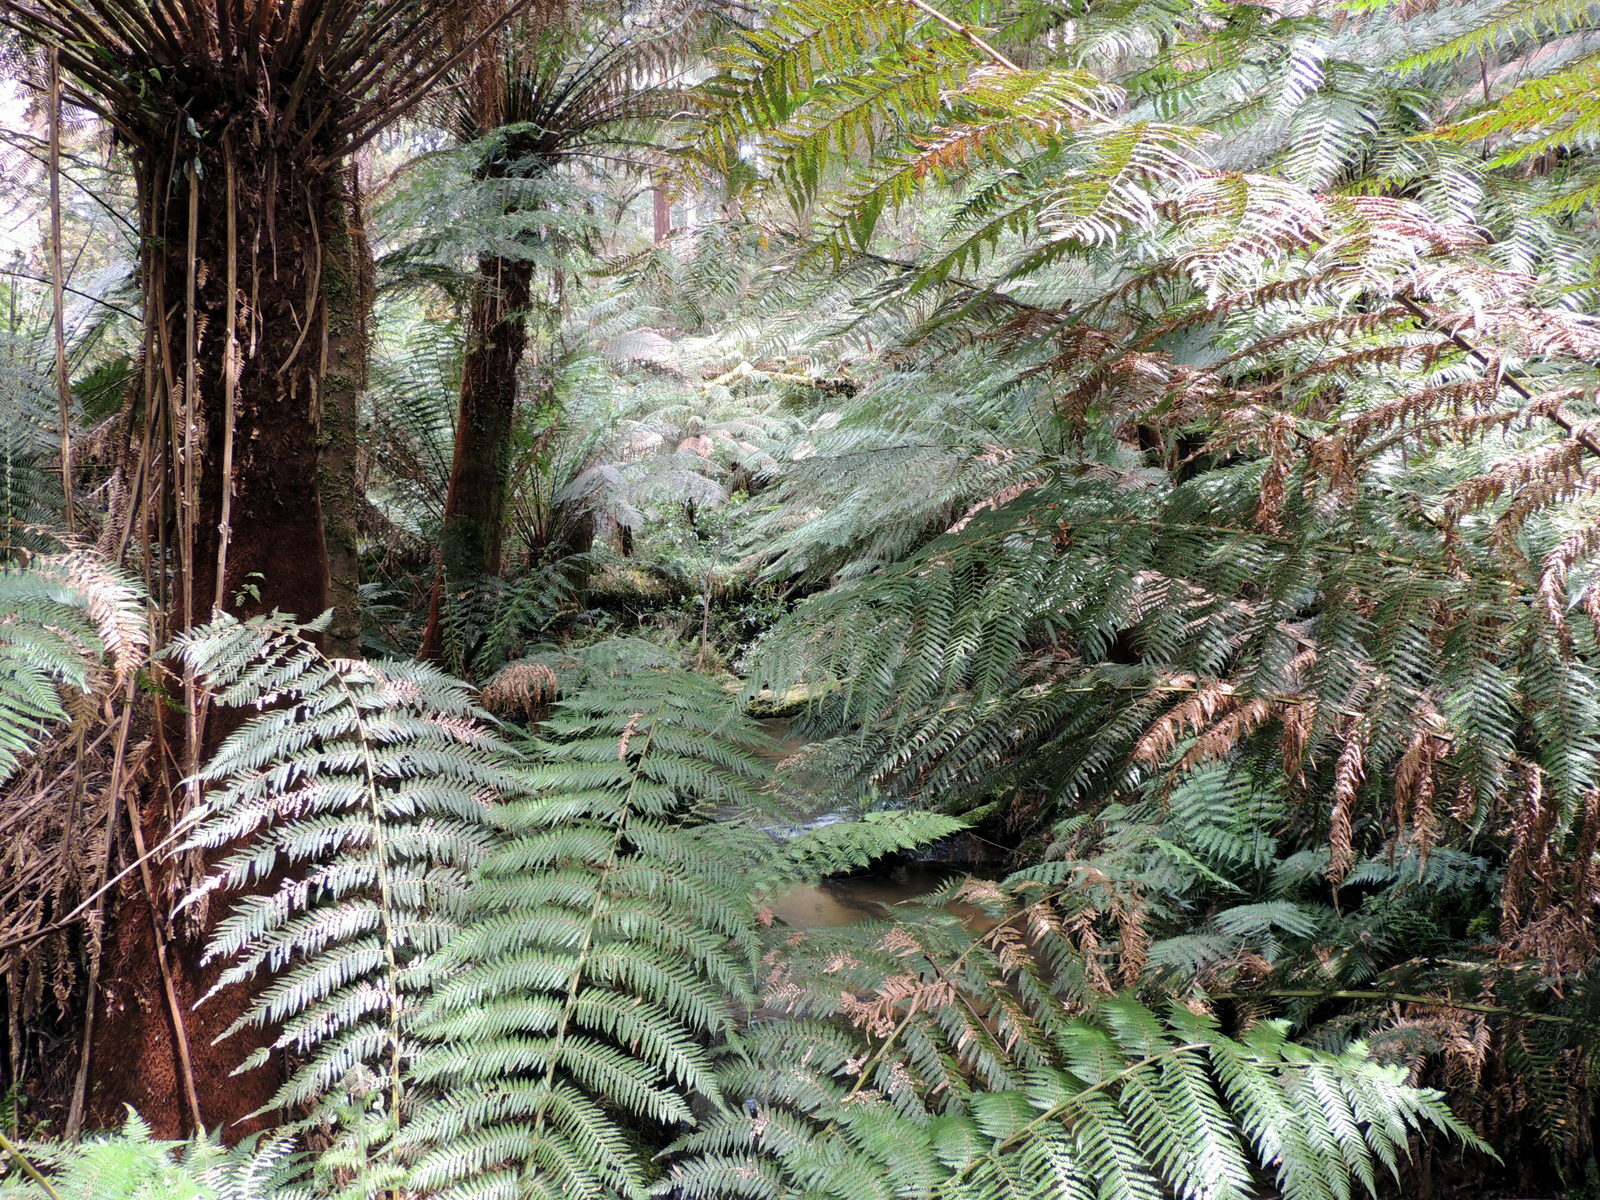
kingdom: Plantae
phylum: Tracheophyta
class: Polypodiopsida
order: Cyatheales
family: Dicksoniaceae
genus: Dicksonia
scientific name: Dicksonia antarctica
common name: Australian treefern
